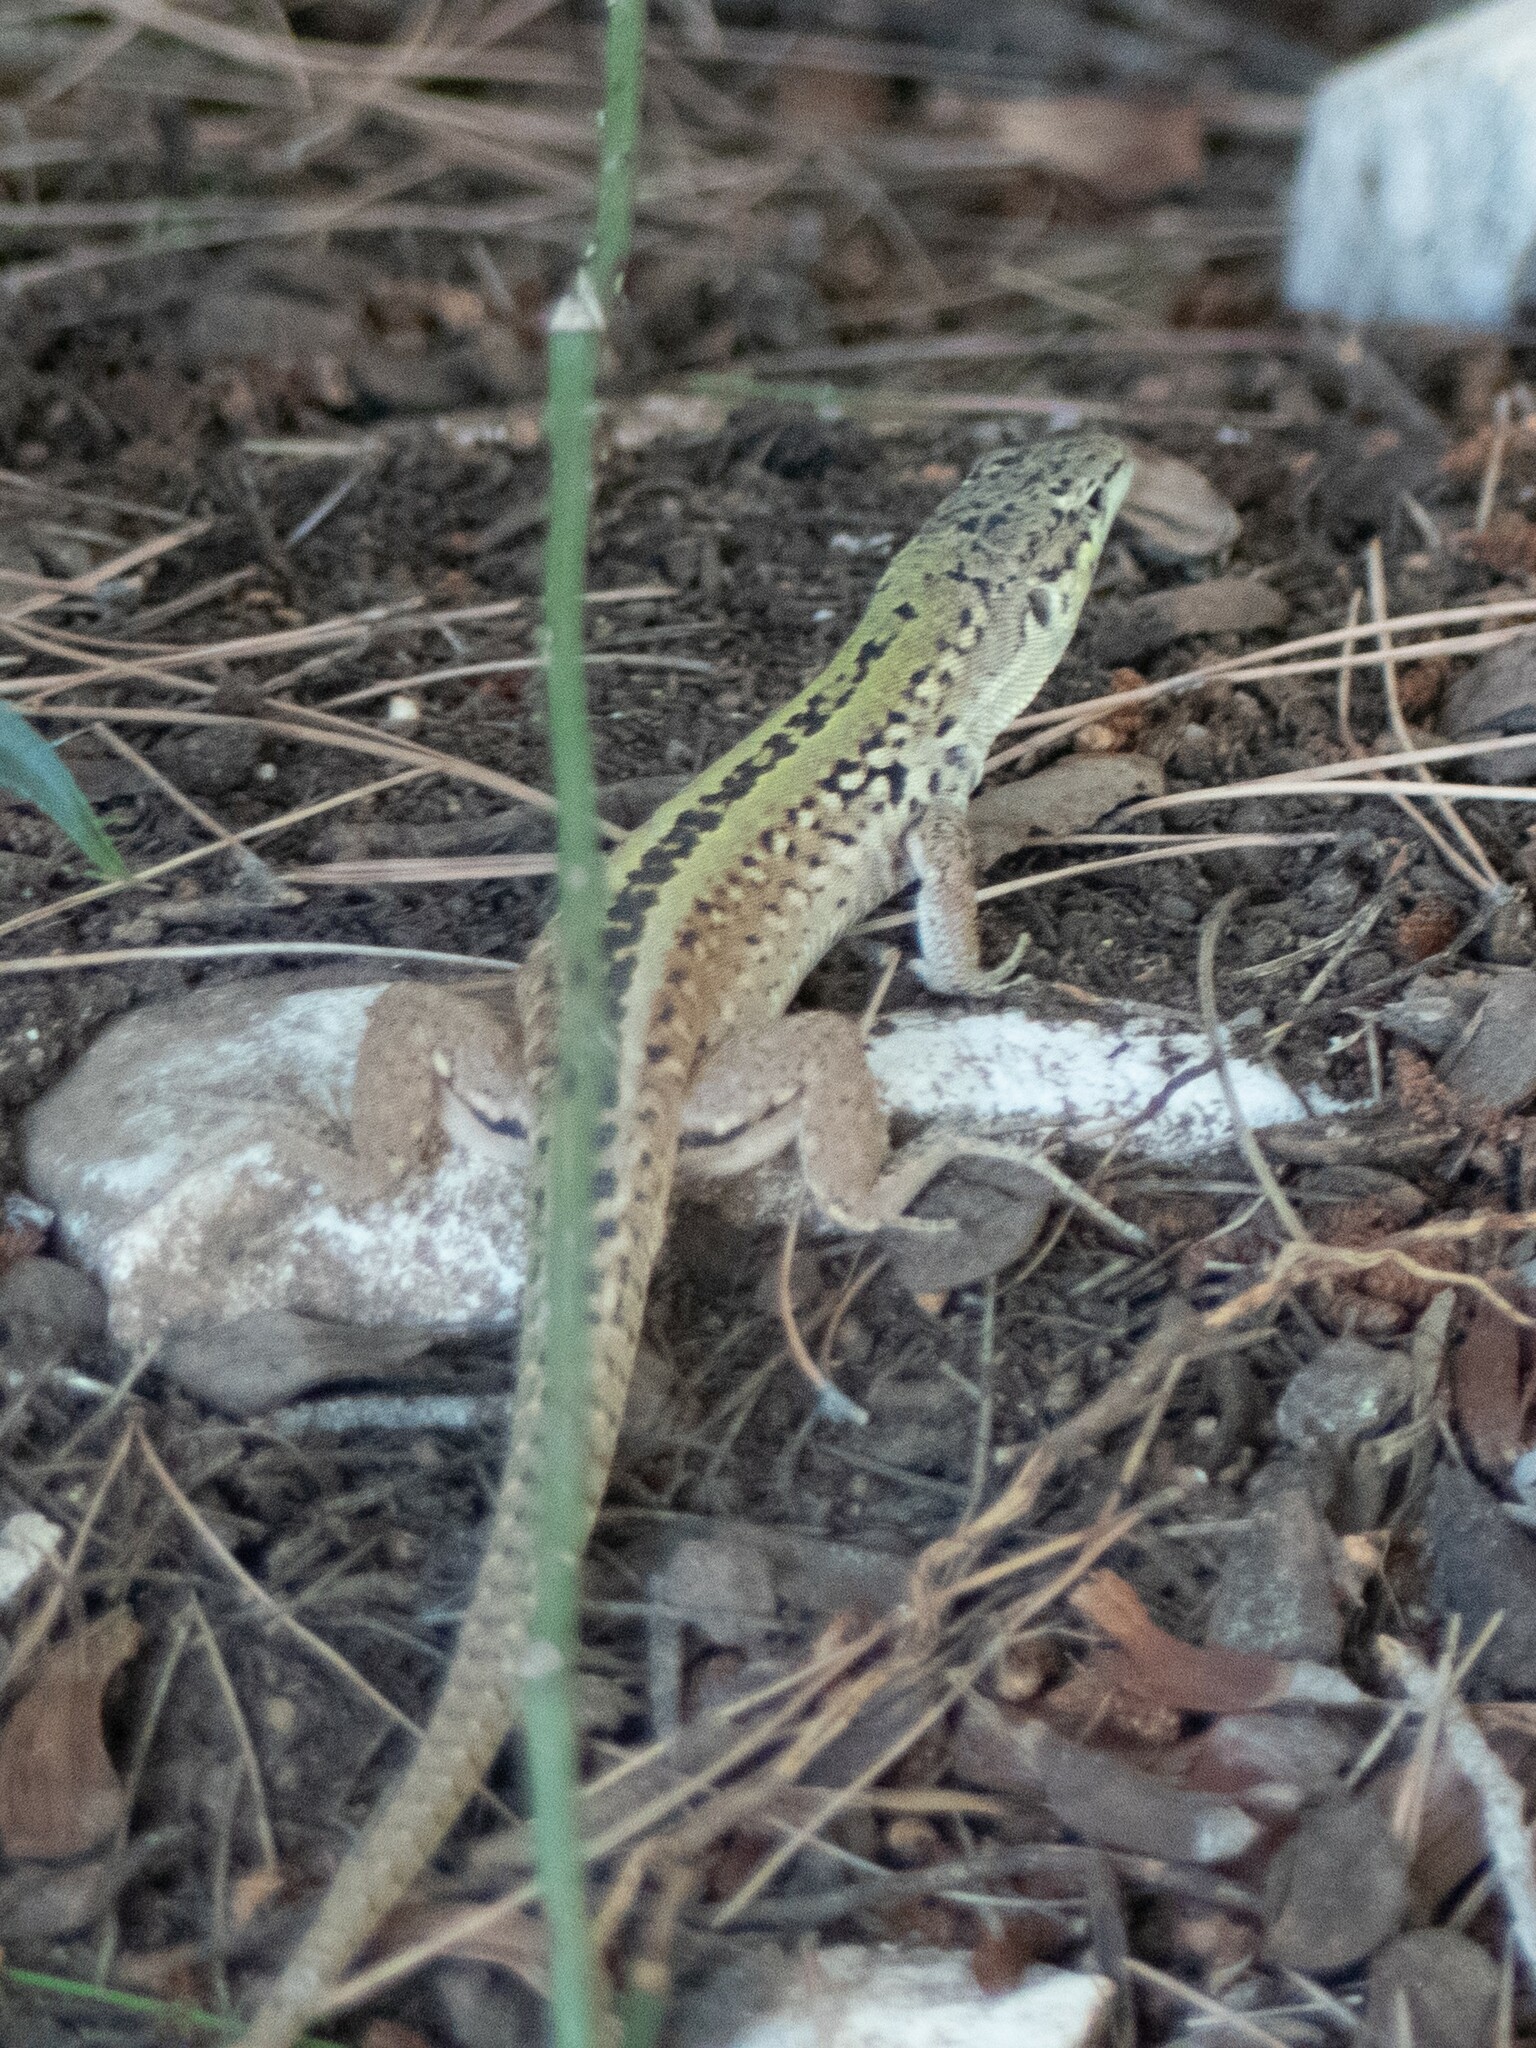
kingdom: Animalia
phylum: Chordata
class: Squamata
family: Lacertidae
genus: Podarcis
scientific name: Podarcis siculus
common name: Italian wall lizard
